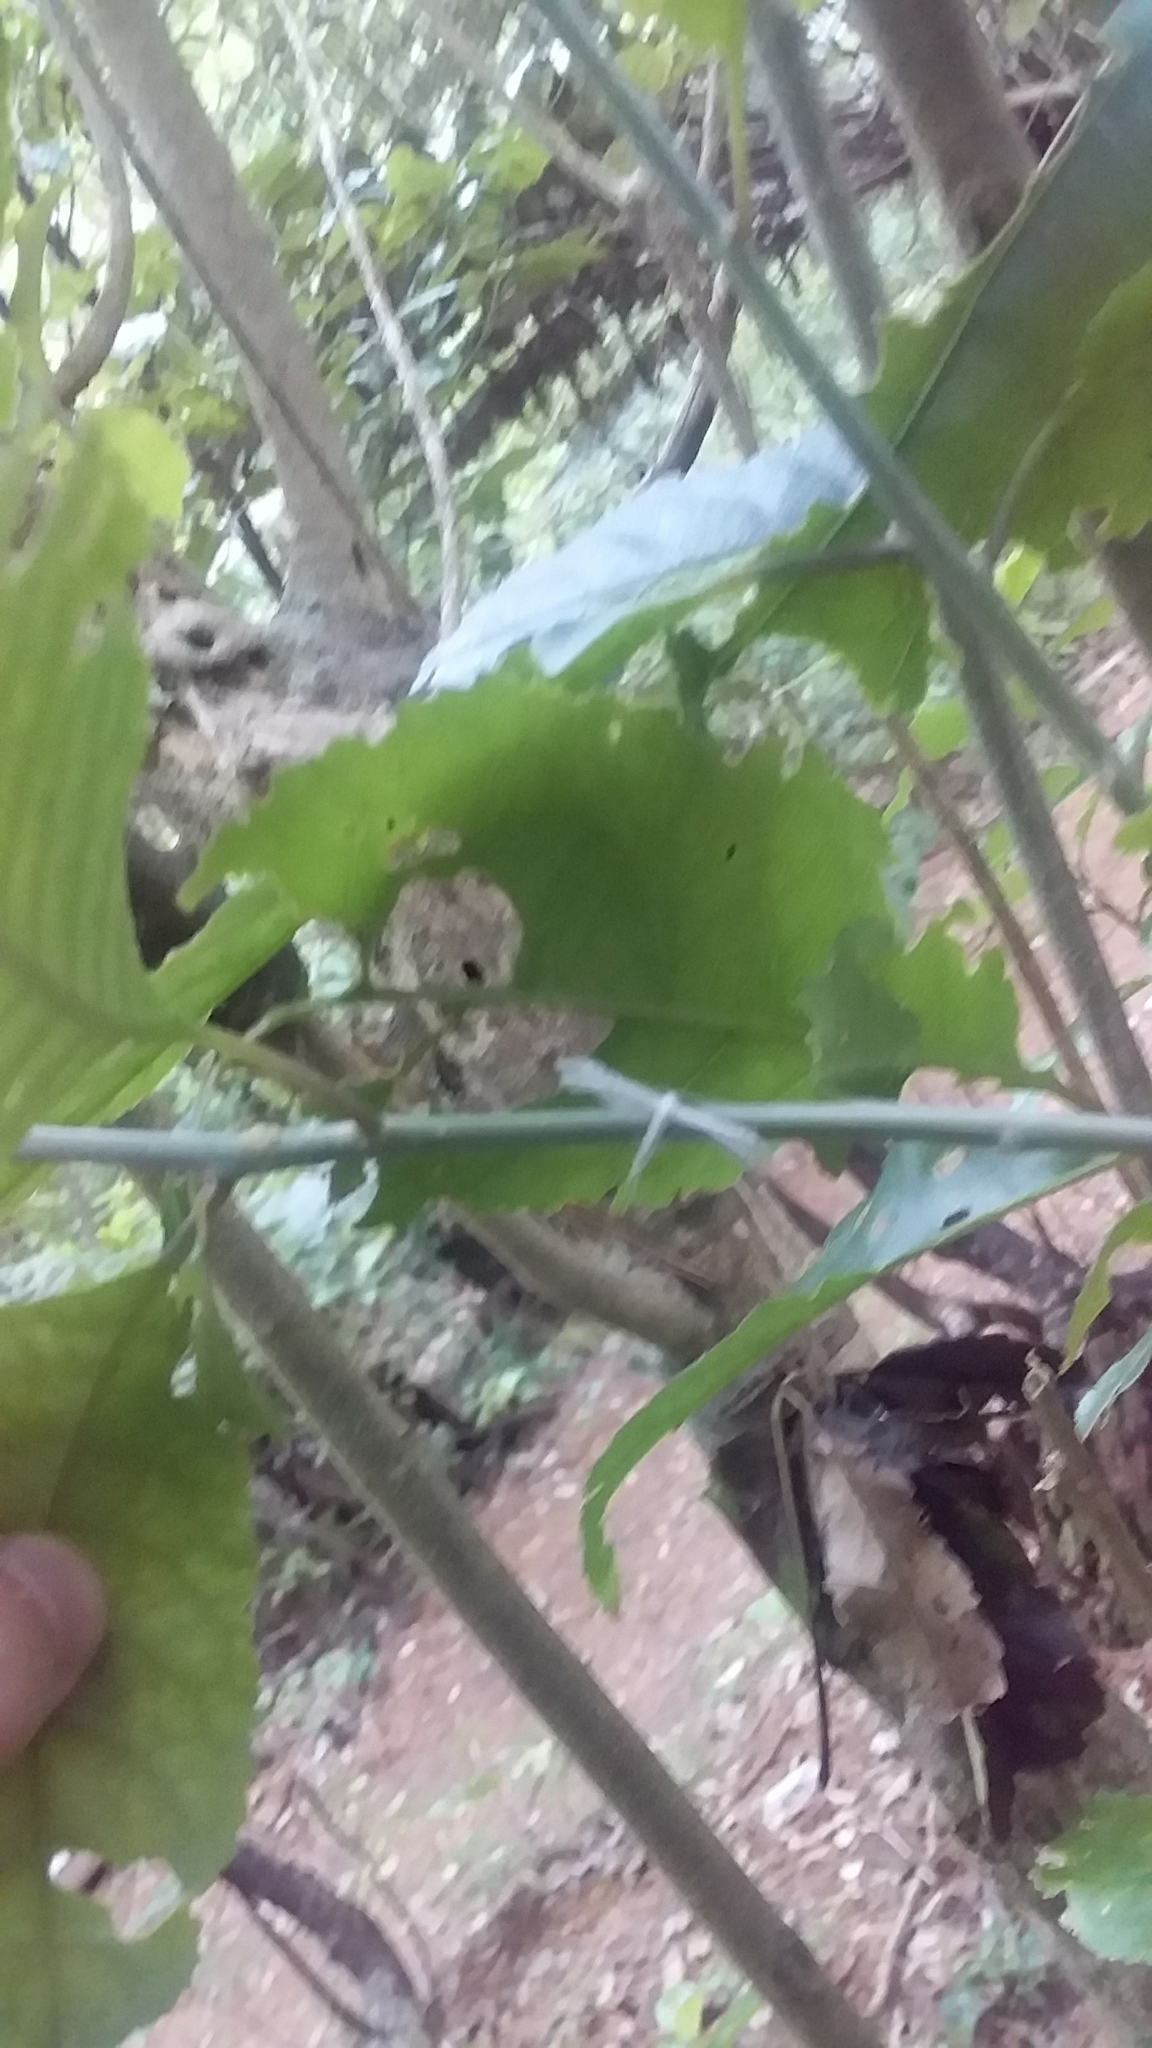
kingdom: Animalia
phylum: Arthropoda
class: Insecta
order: Lepidoptera
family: Pterophoridae
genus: Pterophorus
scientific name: Pterophorus monospilalis
